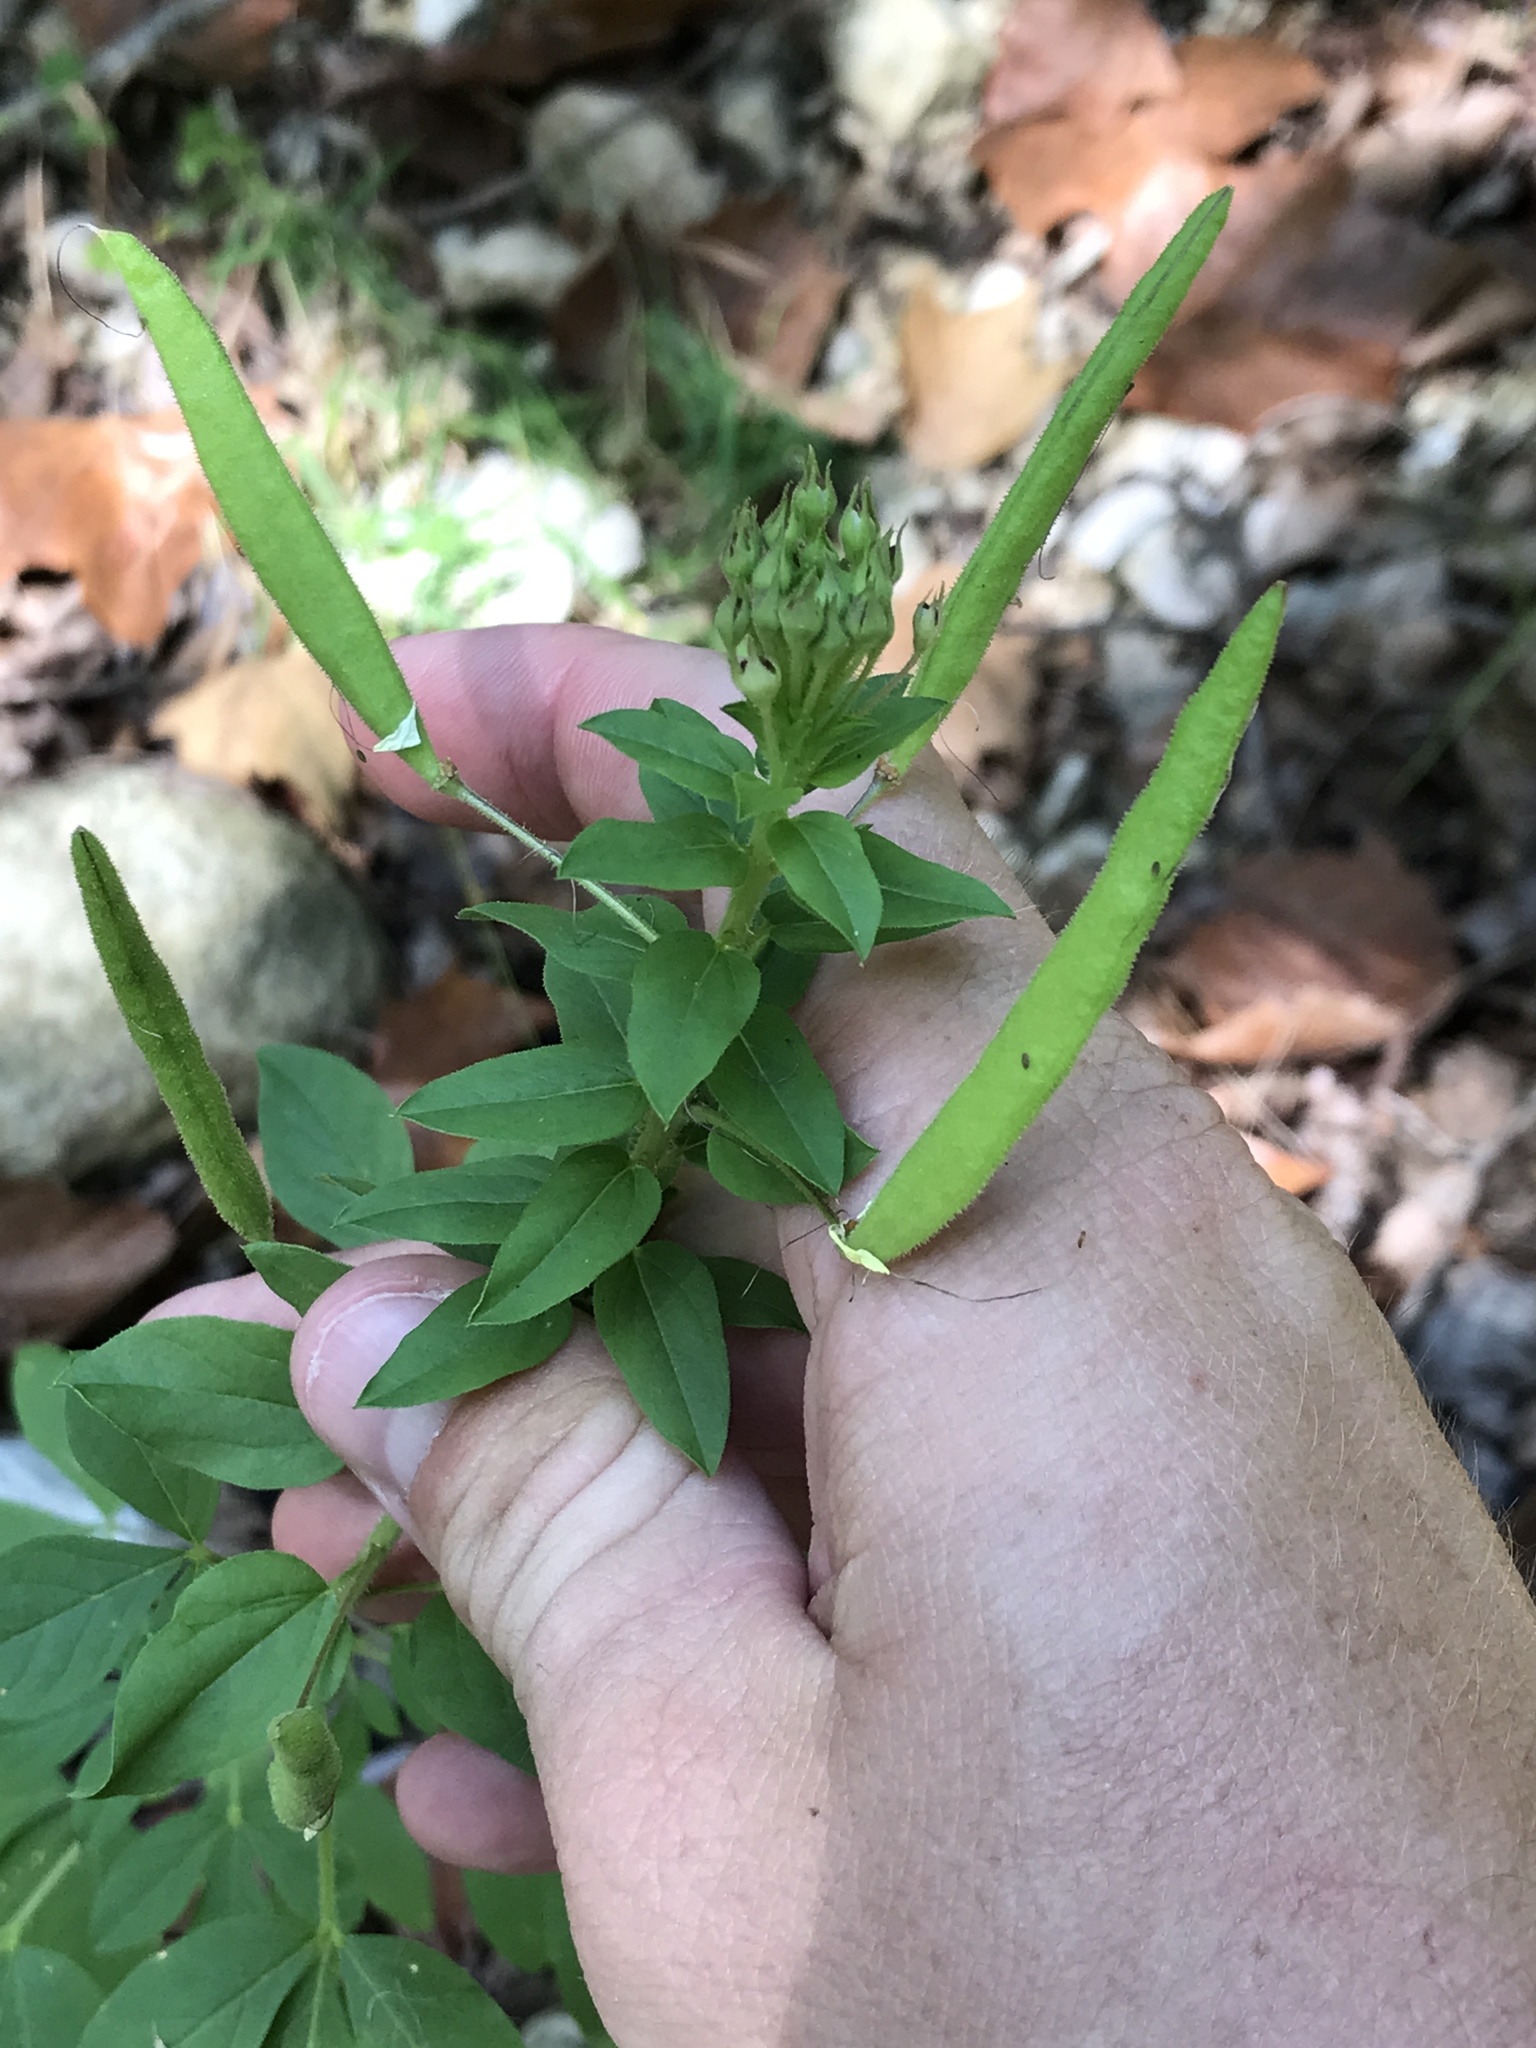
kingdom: Plantae
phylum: Tracheophyta
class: Magnoliopsida
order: Brassicales
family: Cleomaceae
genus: Polanisia
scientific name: Polanisia dodecandra
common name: Clammyweed
